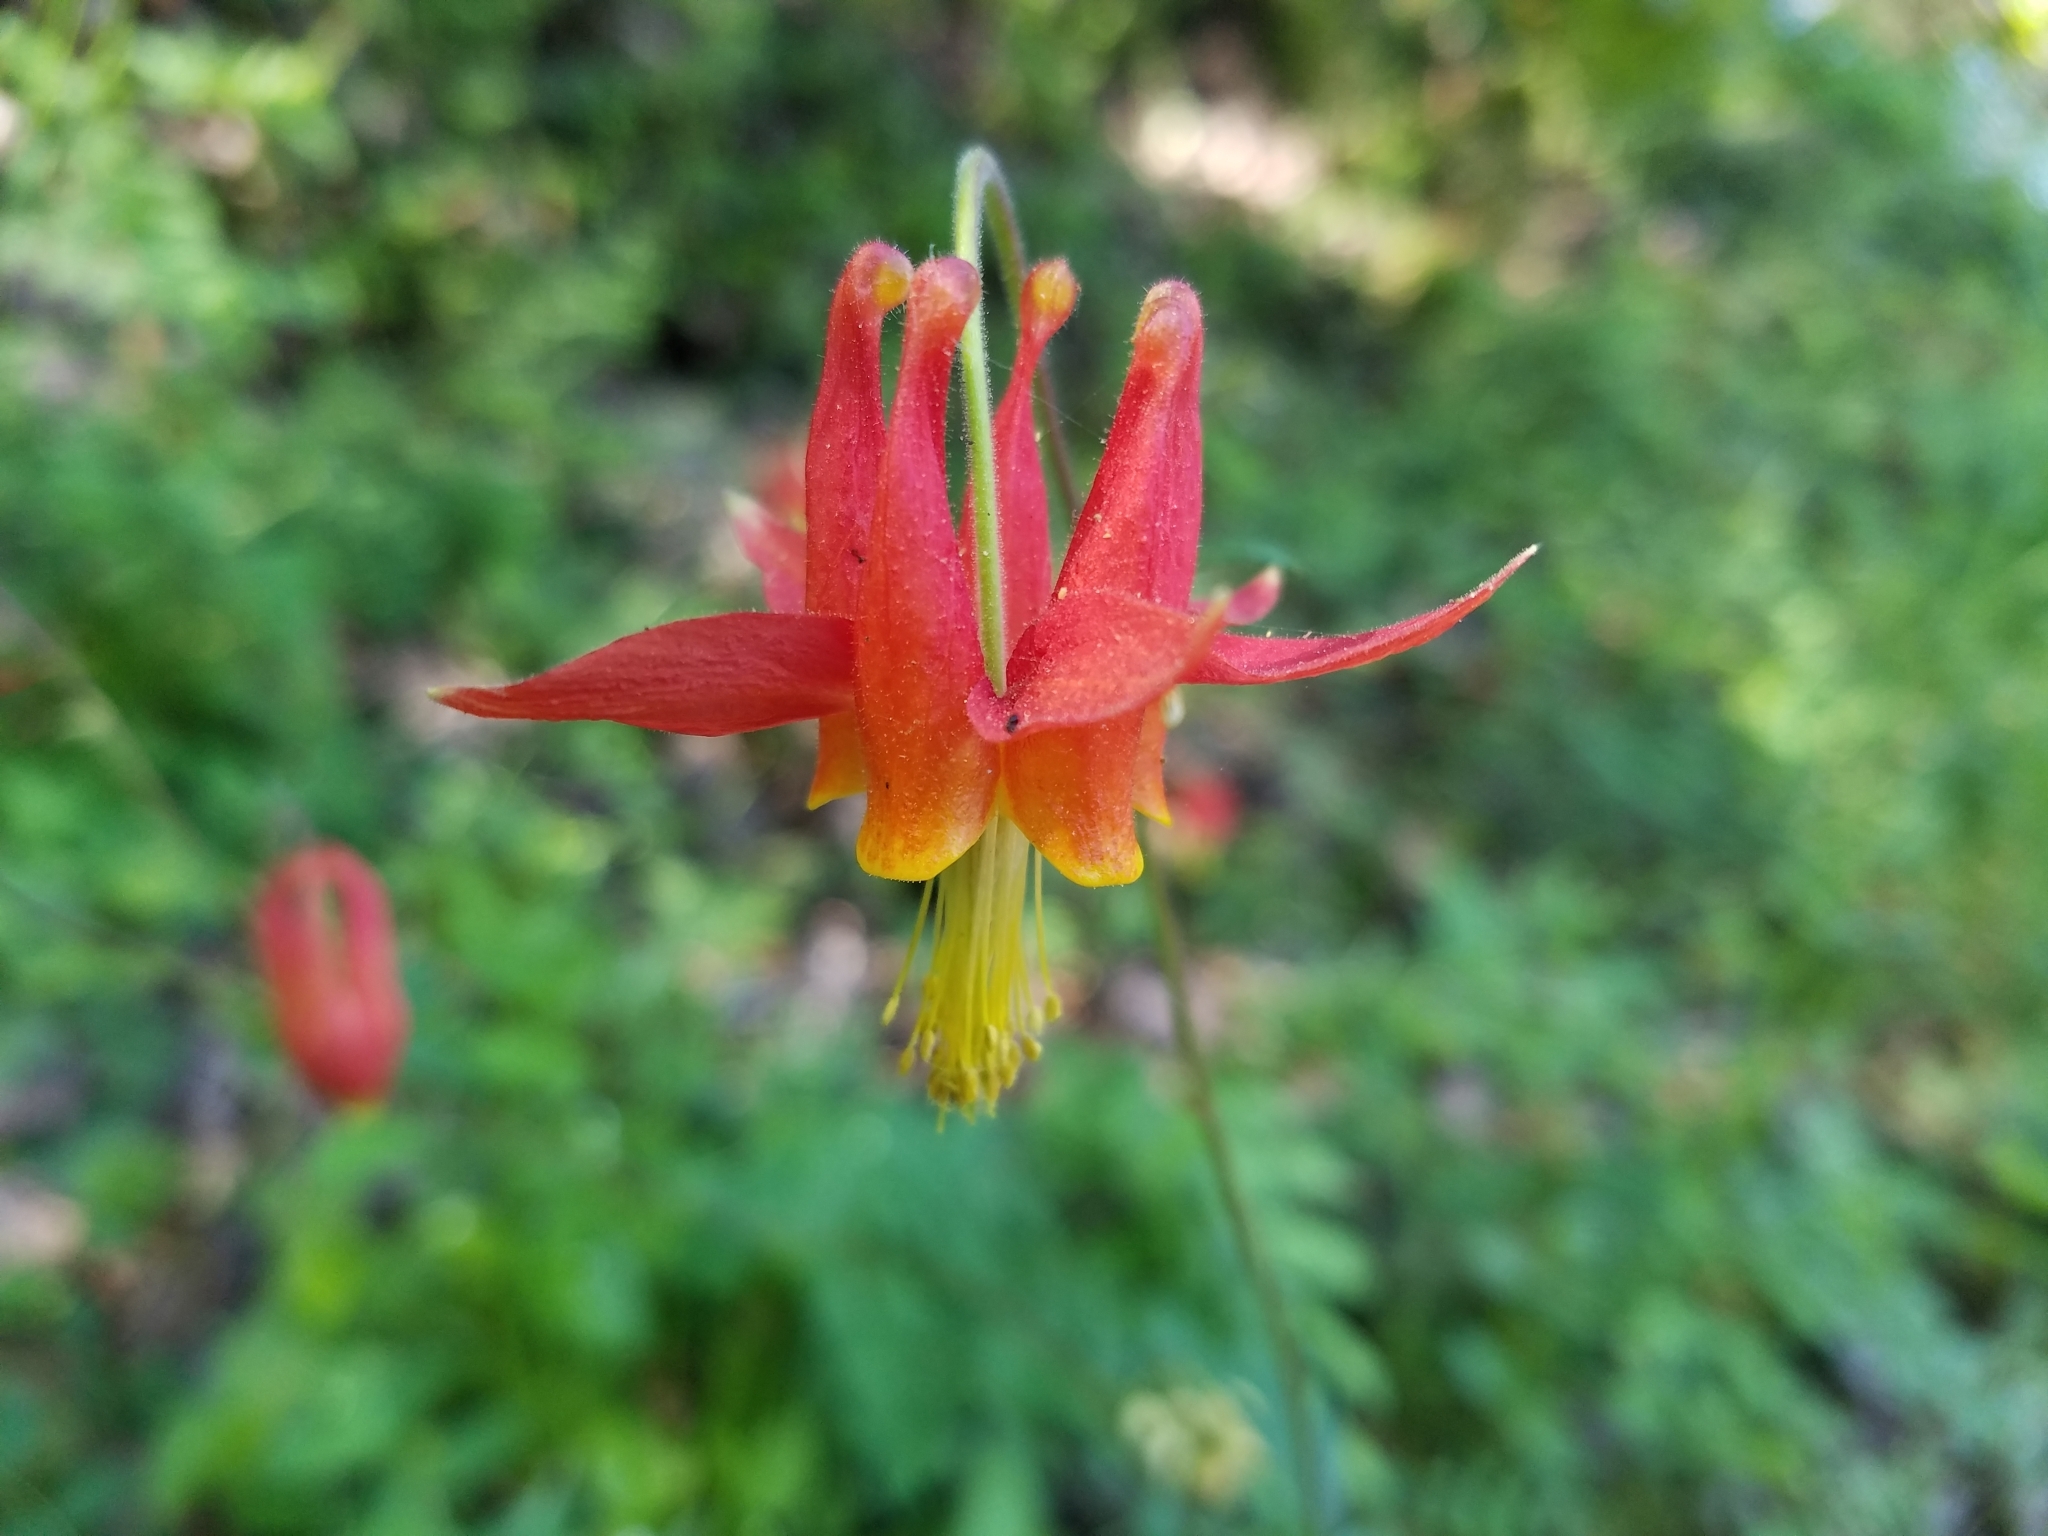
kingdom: Plantae
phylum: Tracheophyta
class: Magnoliopsida
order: Ranunculales
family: Ranunculaceae
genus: Aquilegia
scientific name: Aquilegia formosa
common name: Sitka columbine
